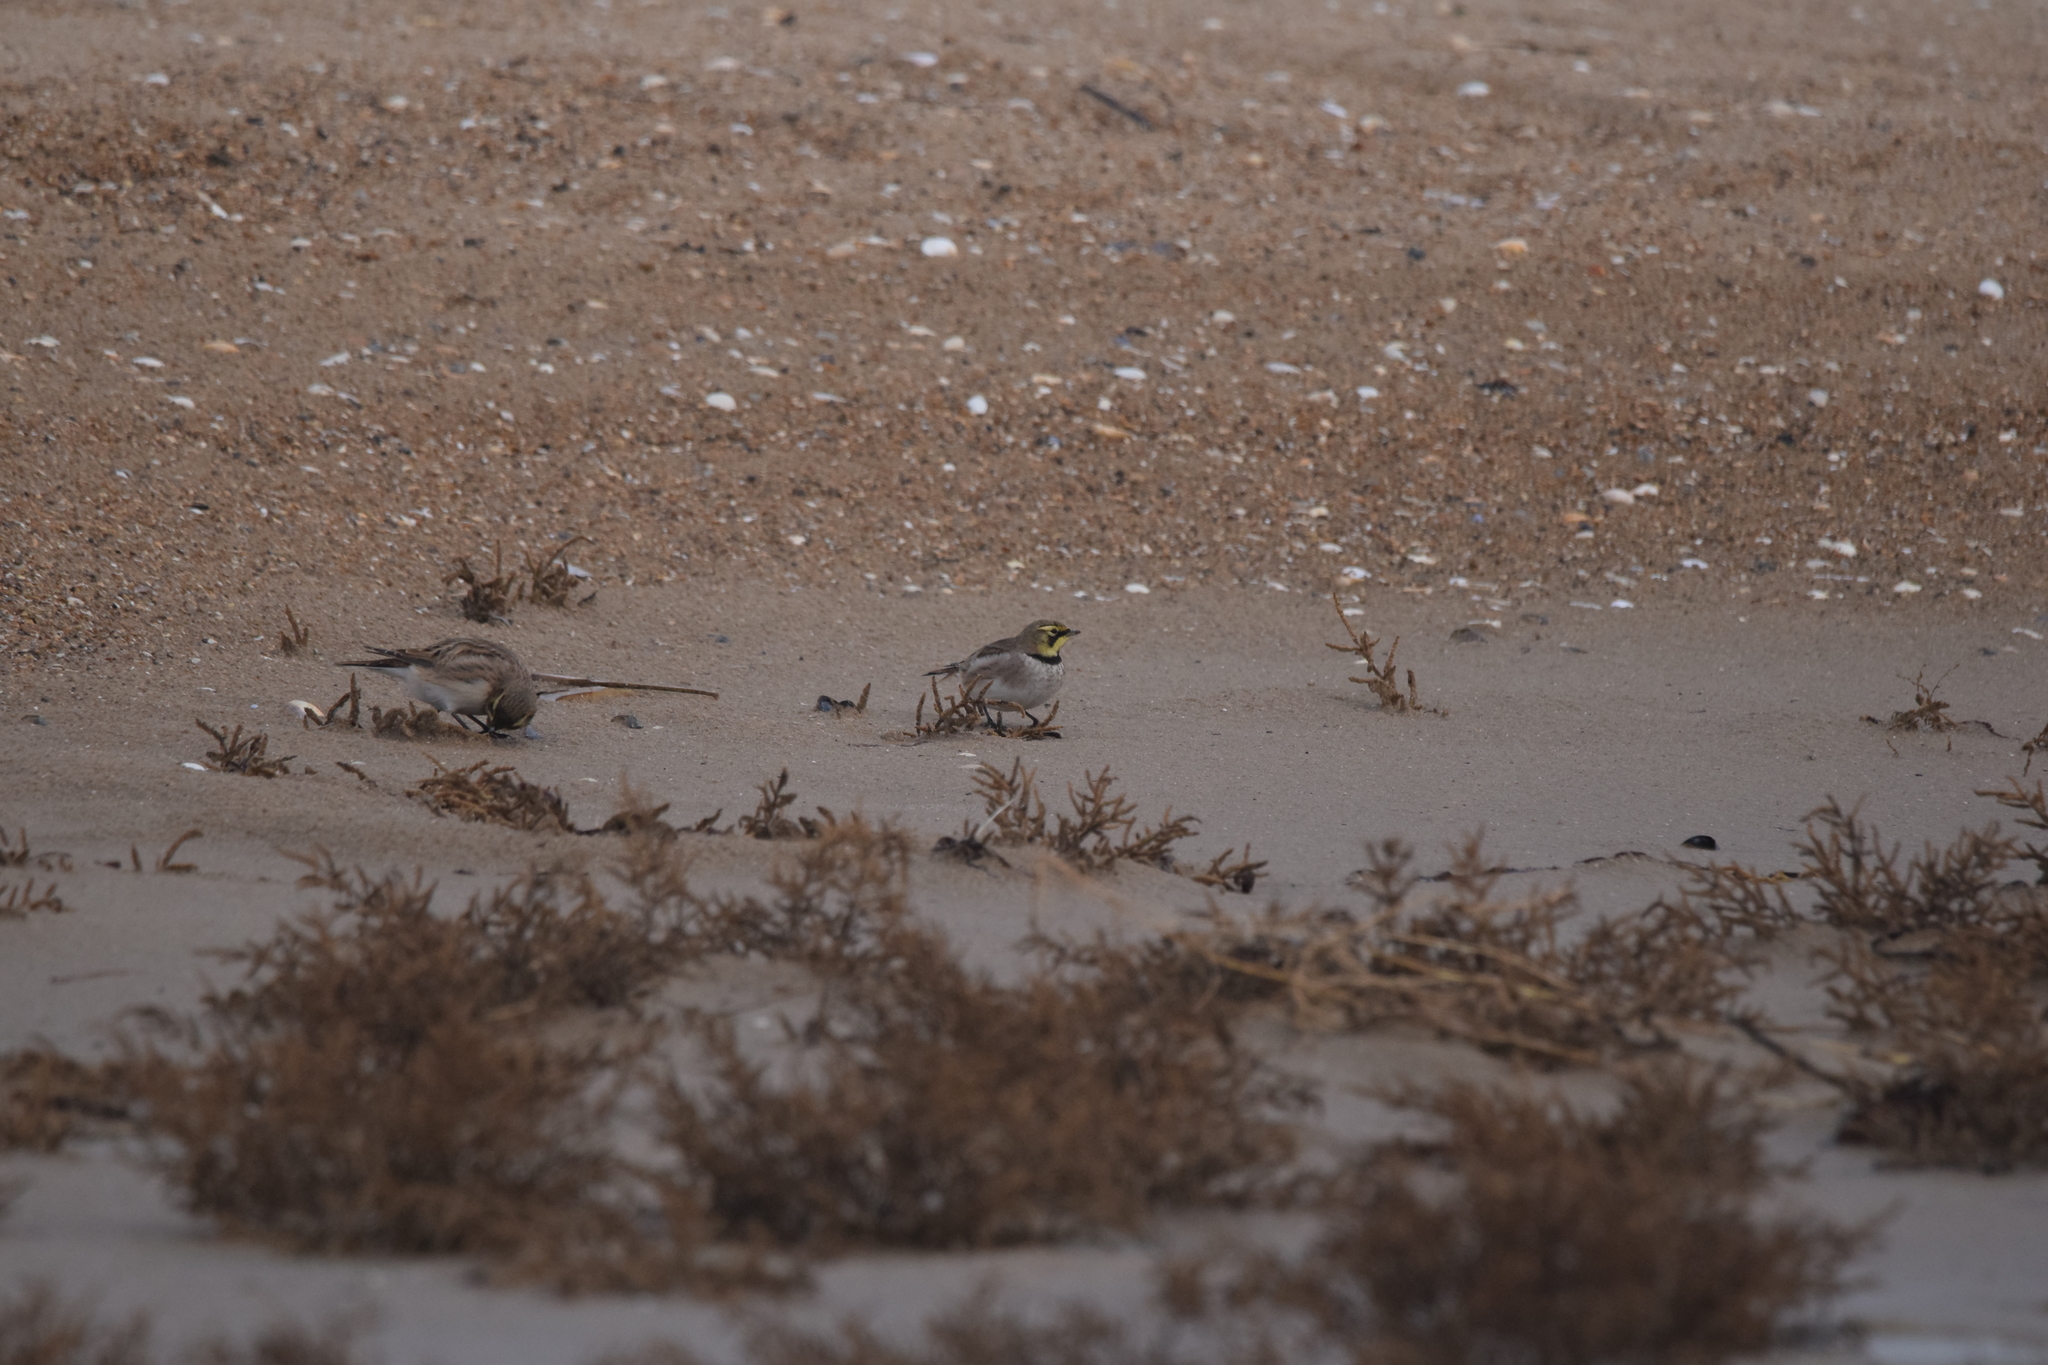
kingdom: Animalia
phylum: Chordata
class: Aves
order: Passeriformes
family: Alaudidae
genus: Eremophila
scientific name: Eremophila alpestris
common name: Horned lark
